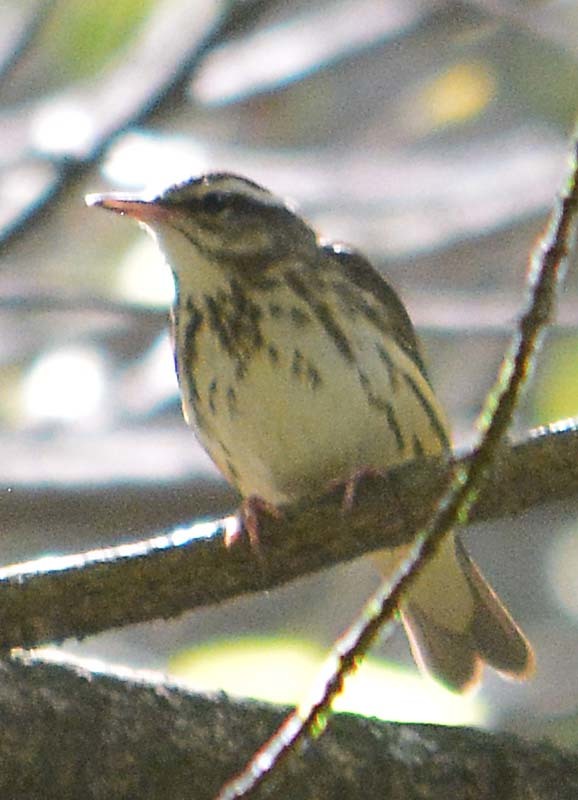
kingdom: Animalia
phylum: Chordata
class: Aves
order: Passeriformes
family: Parulidae
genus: Parkesia
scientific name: Parkesia motacilla
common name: Louisiana waterthrush
